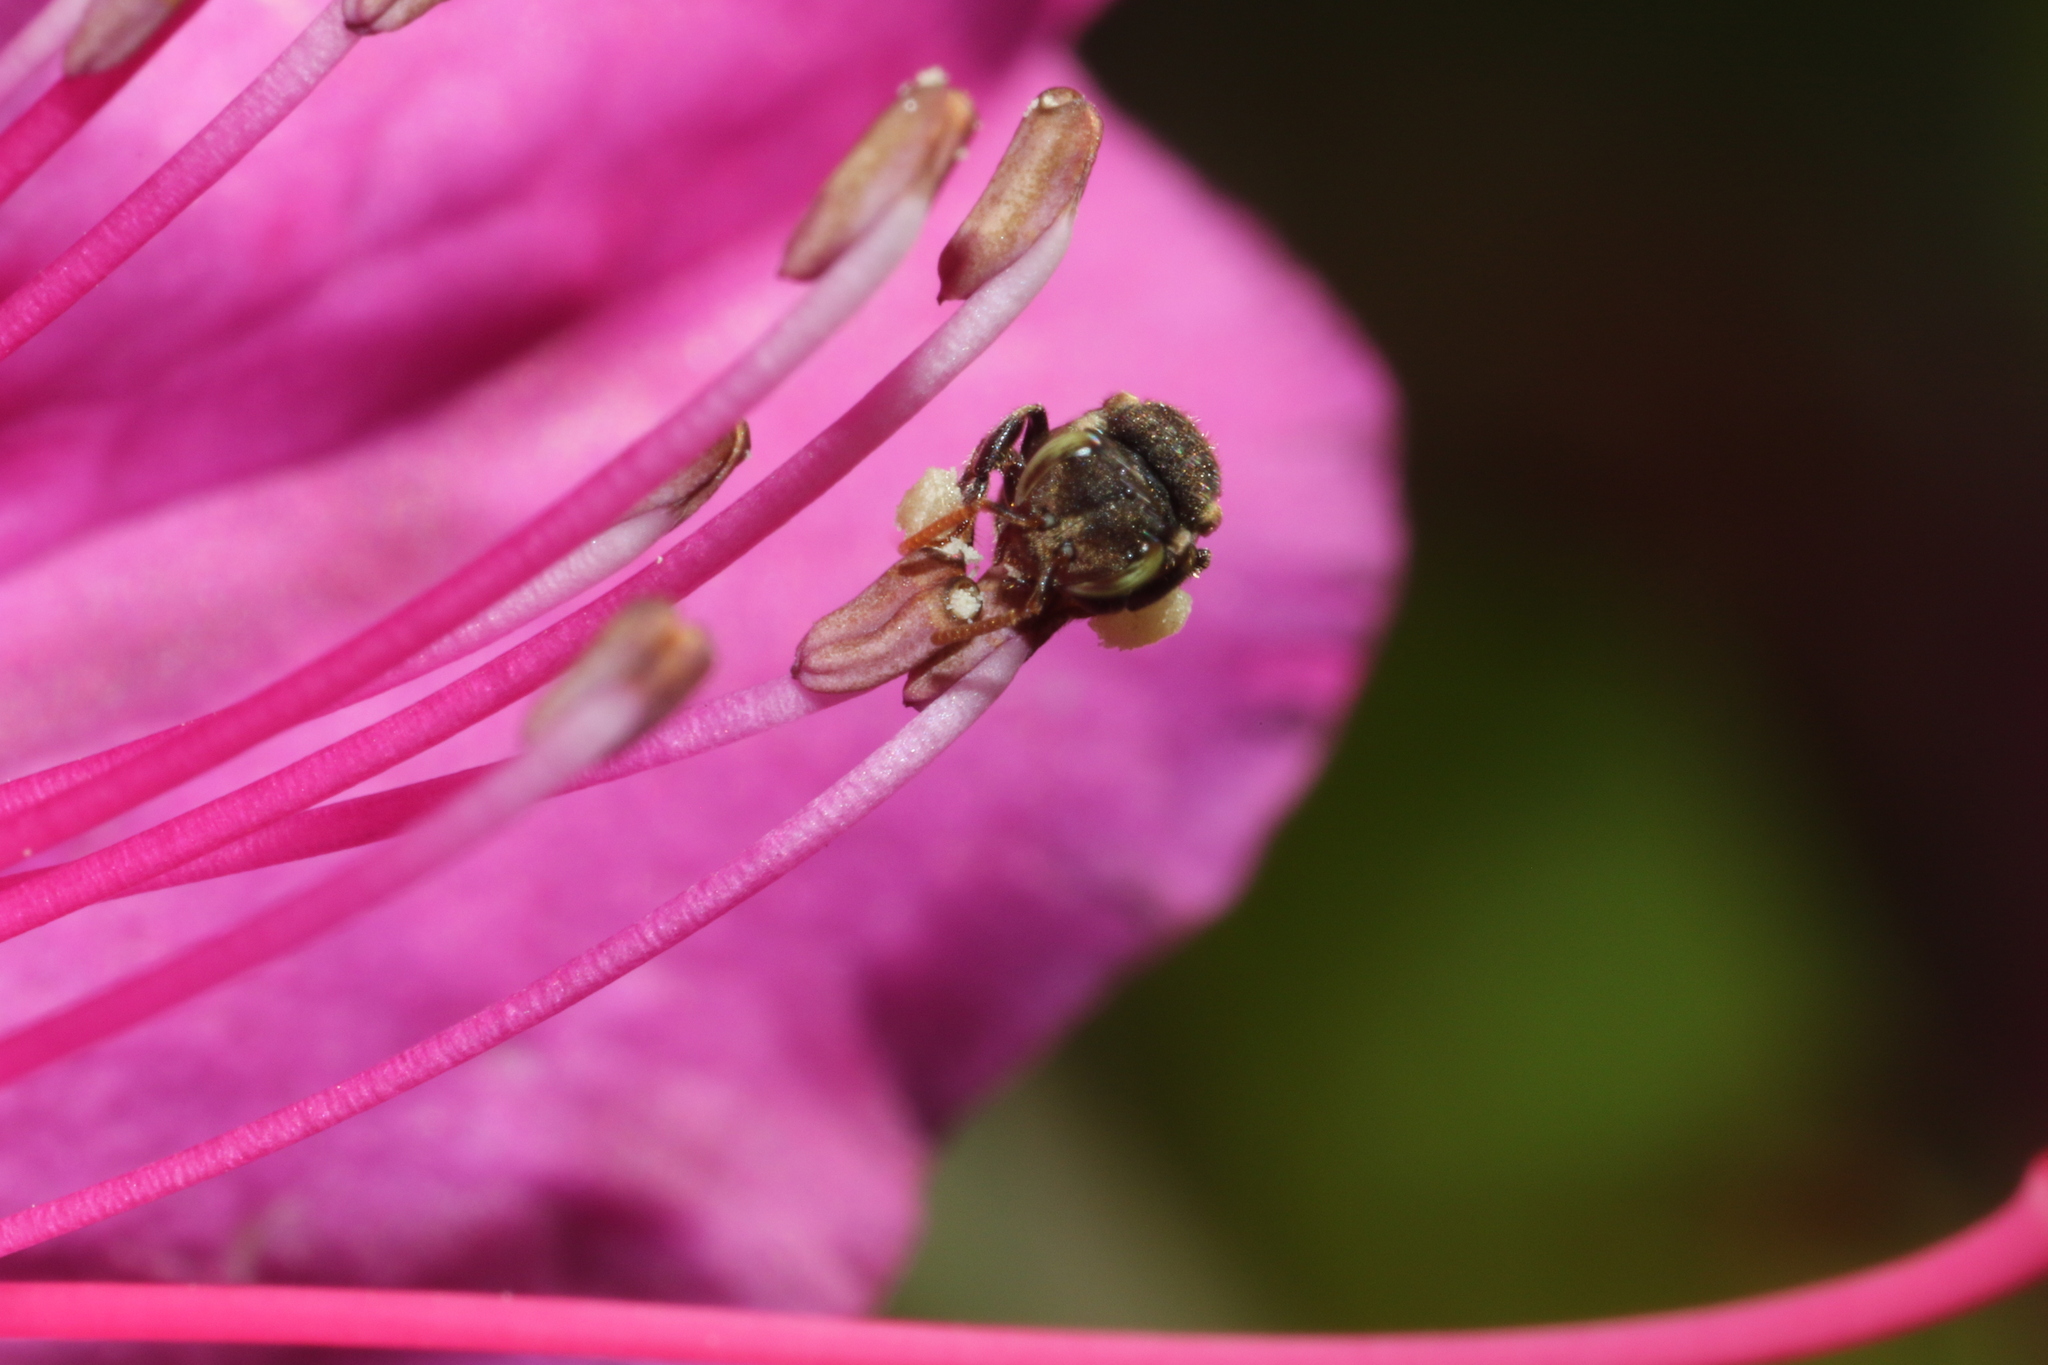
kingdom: Animalia
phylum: Arthropoda
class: Insecta
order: Hymenoptera
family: Apidae
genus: Nannotrigona
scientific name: Nannotrigona testaceicornis
